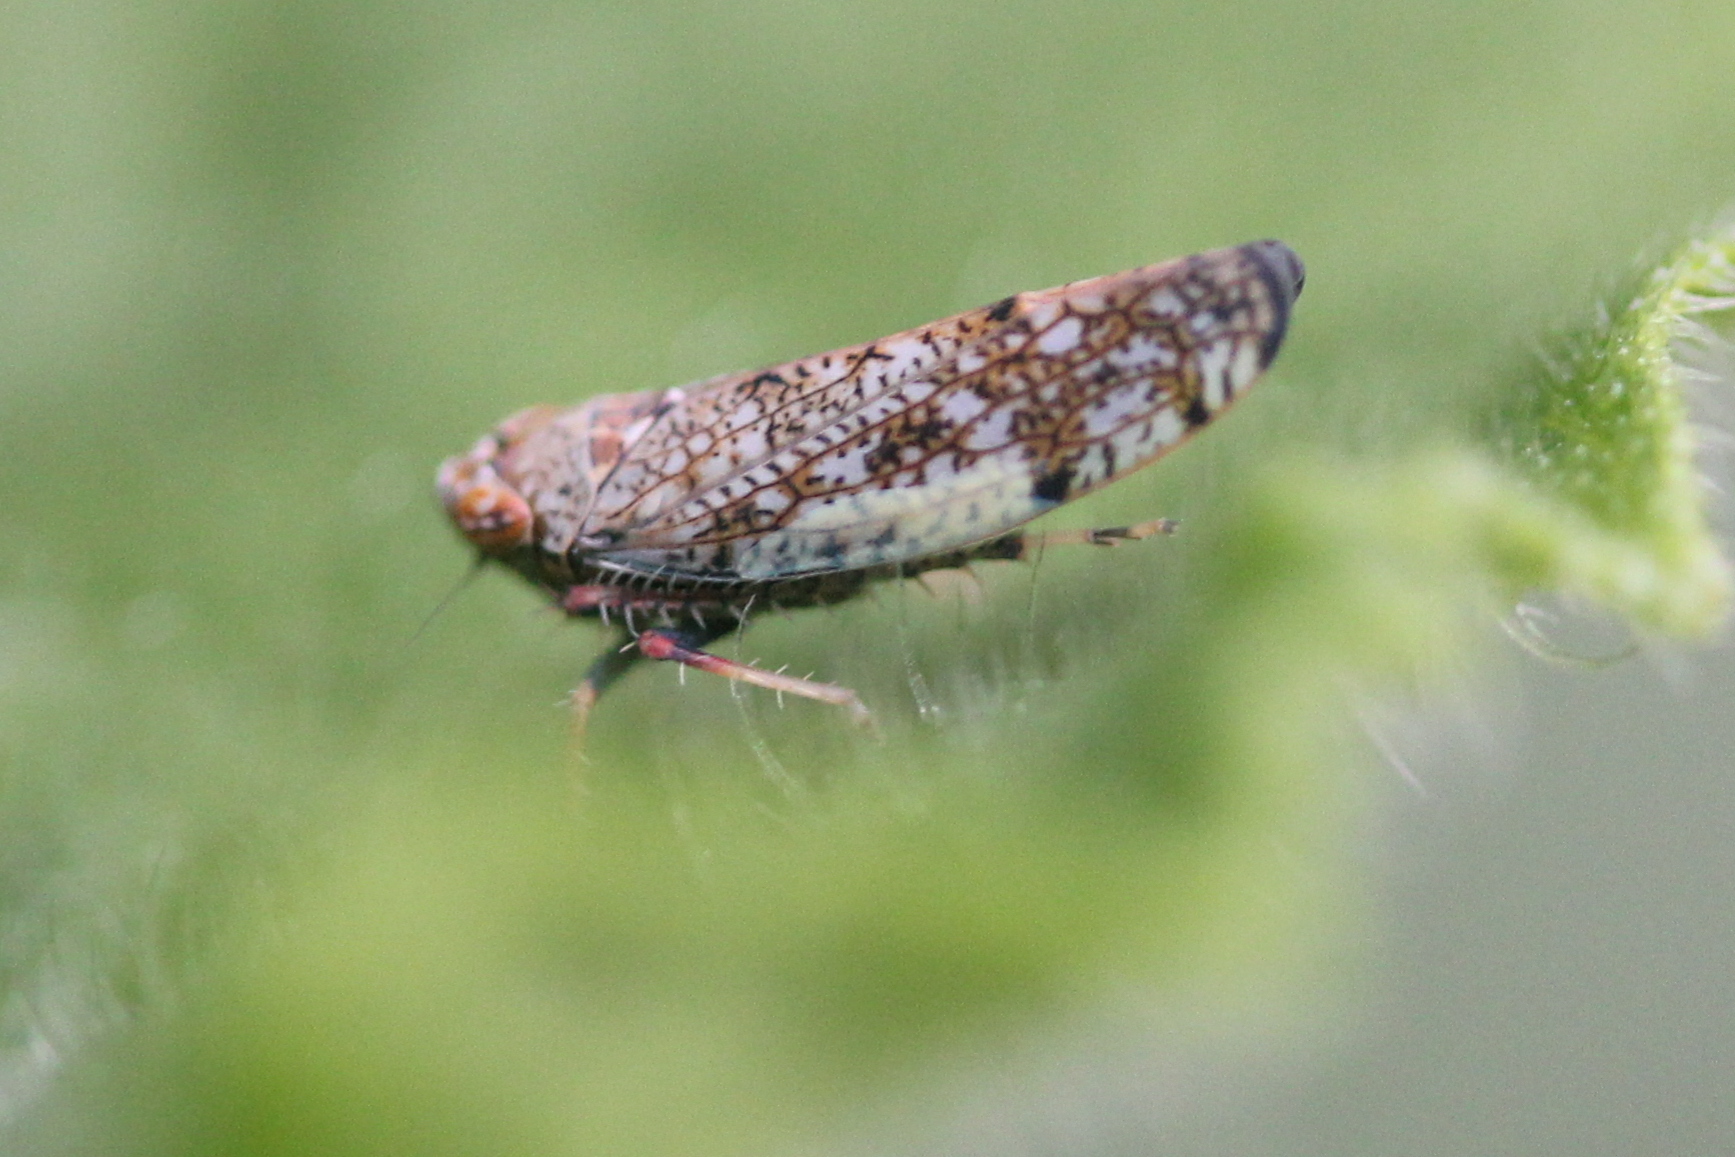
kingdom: Animalia
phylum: Arthropoda
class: Insecta
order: Hemiptera
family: Cicadellidae
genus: Orientus
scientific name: Orientus ishidae
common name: Japanese leafhopper
